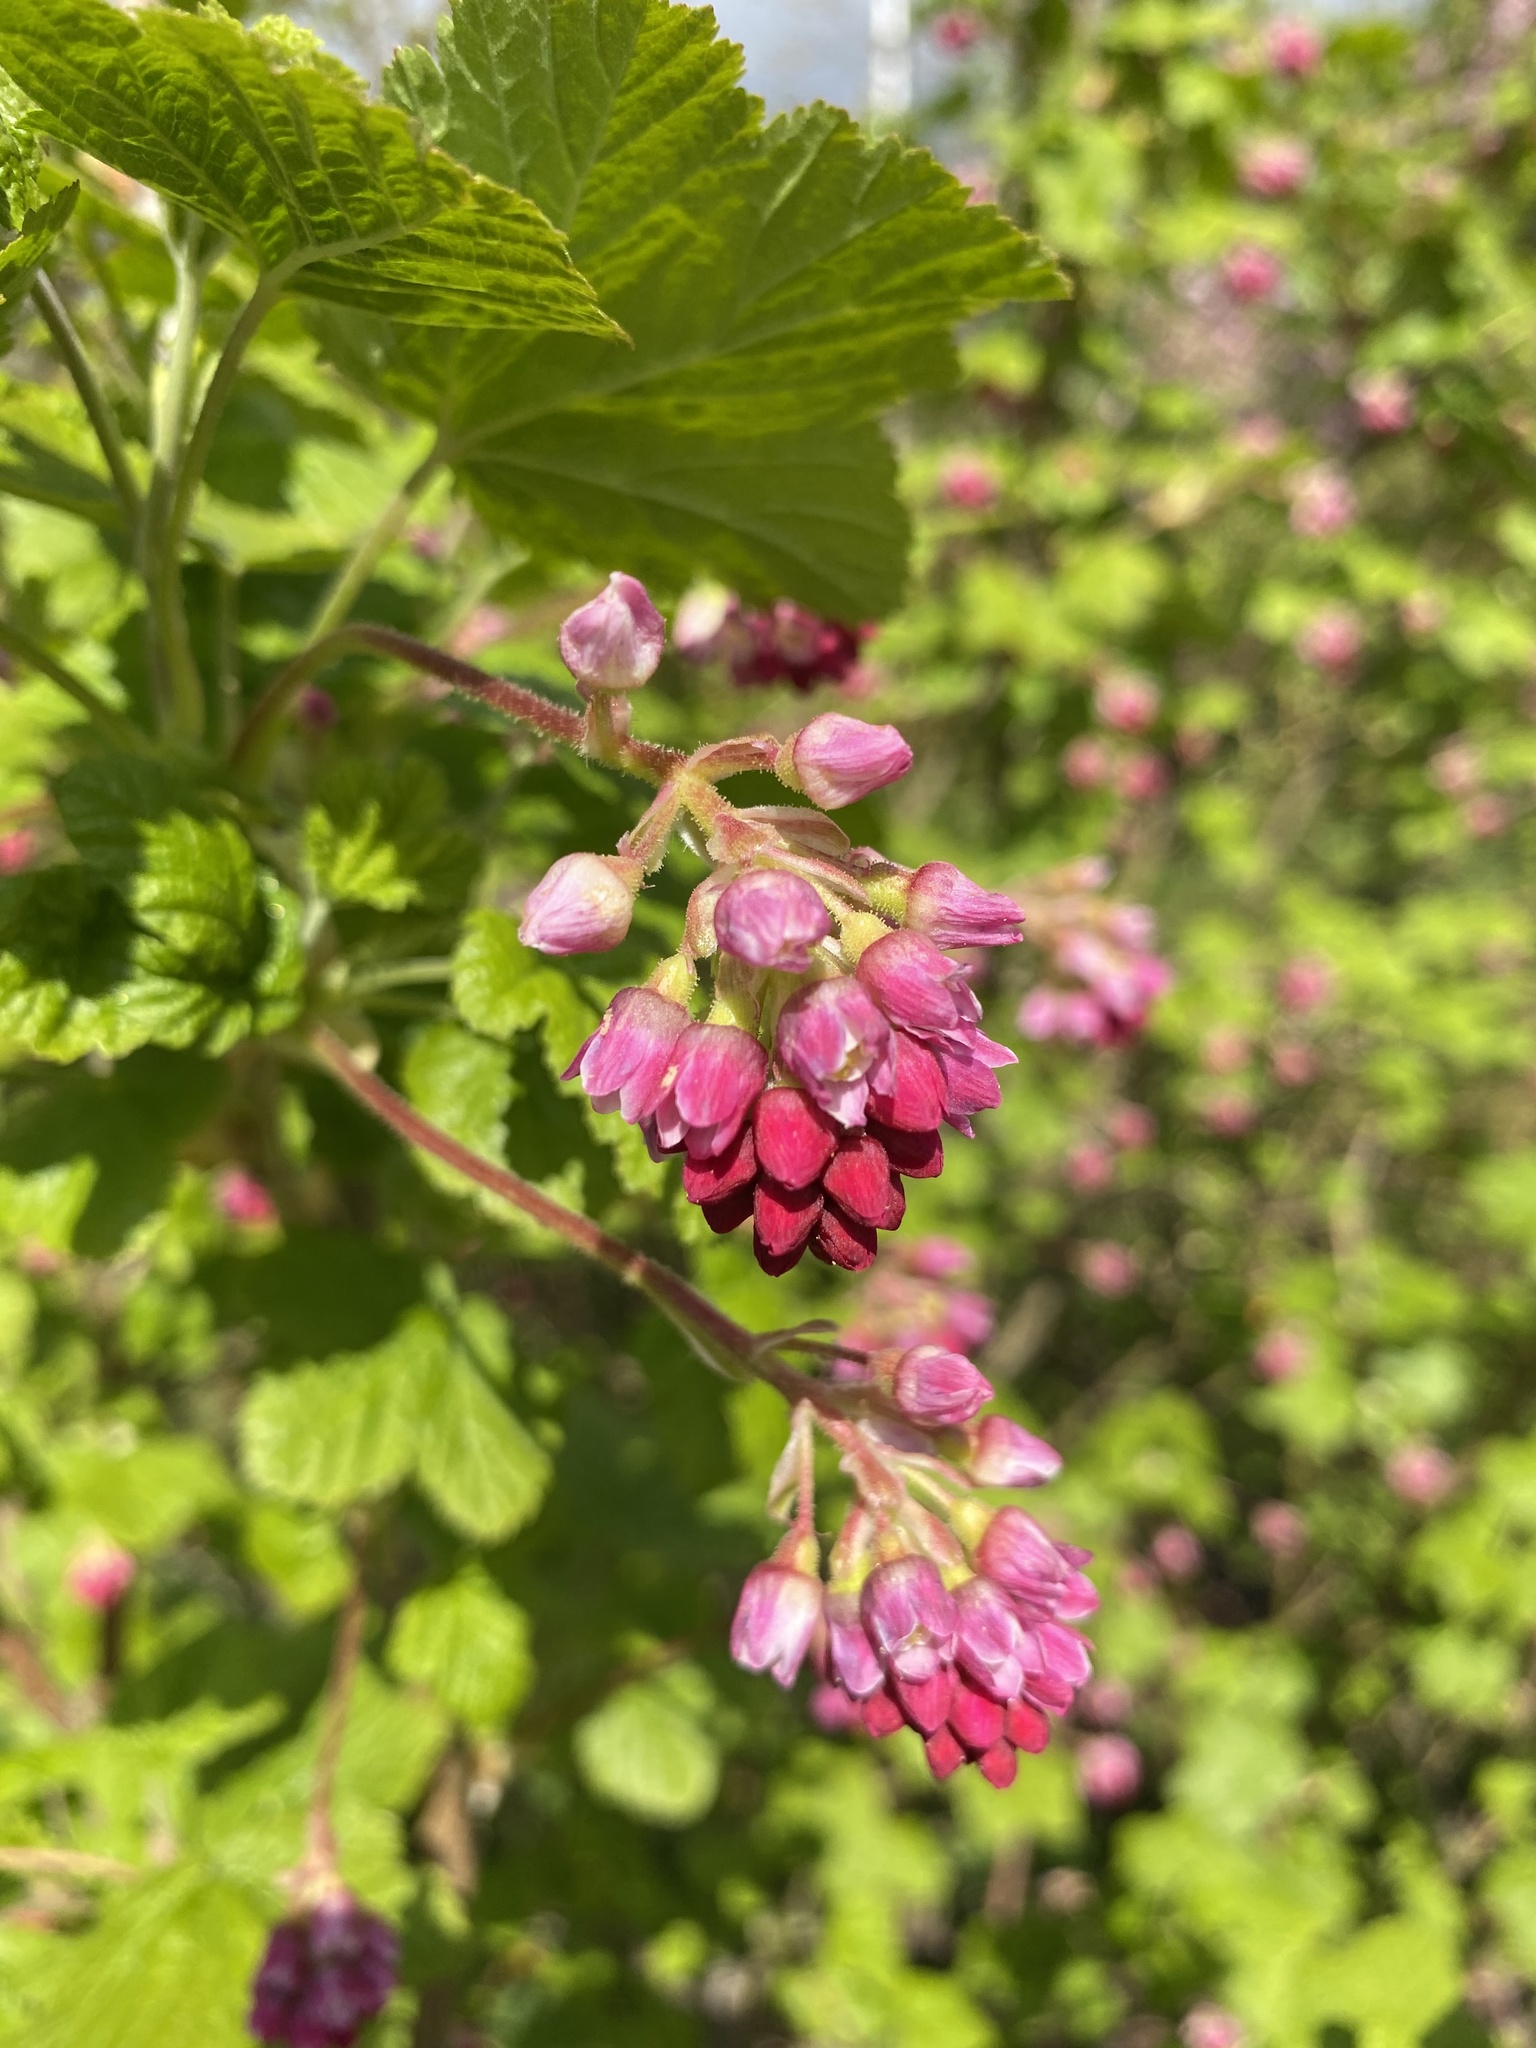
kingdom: Plantae
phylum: Tracheophyta
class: Magnoliopsida
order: Saxifragales
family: Grossulariaceae
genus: Ribes
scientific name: Ribes sanguineum
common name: Flowering currant
